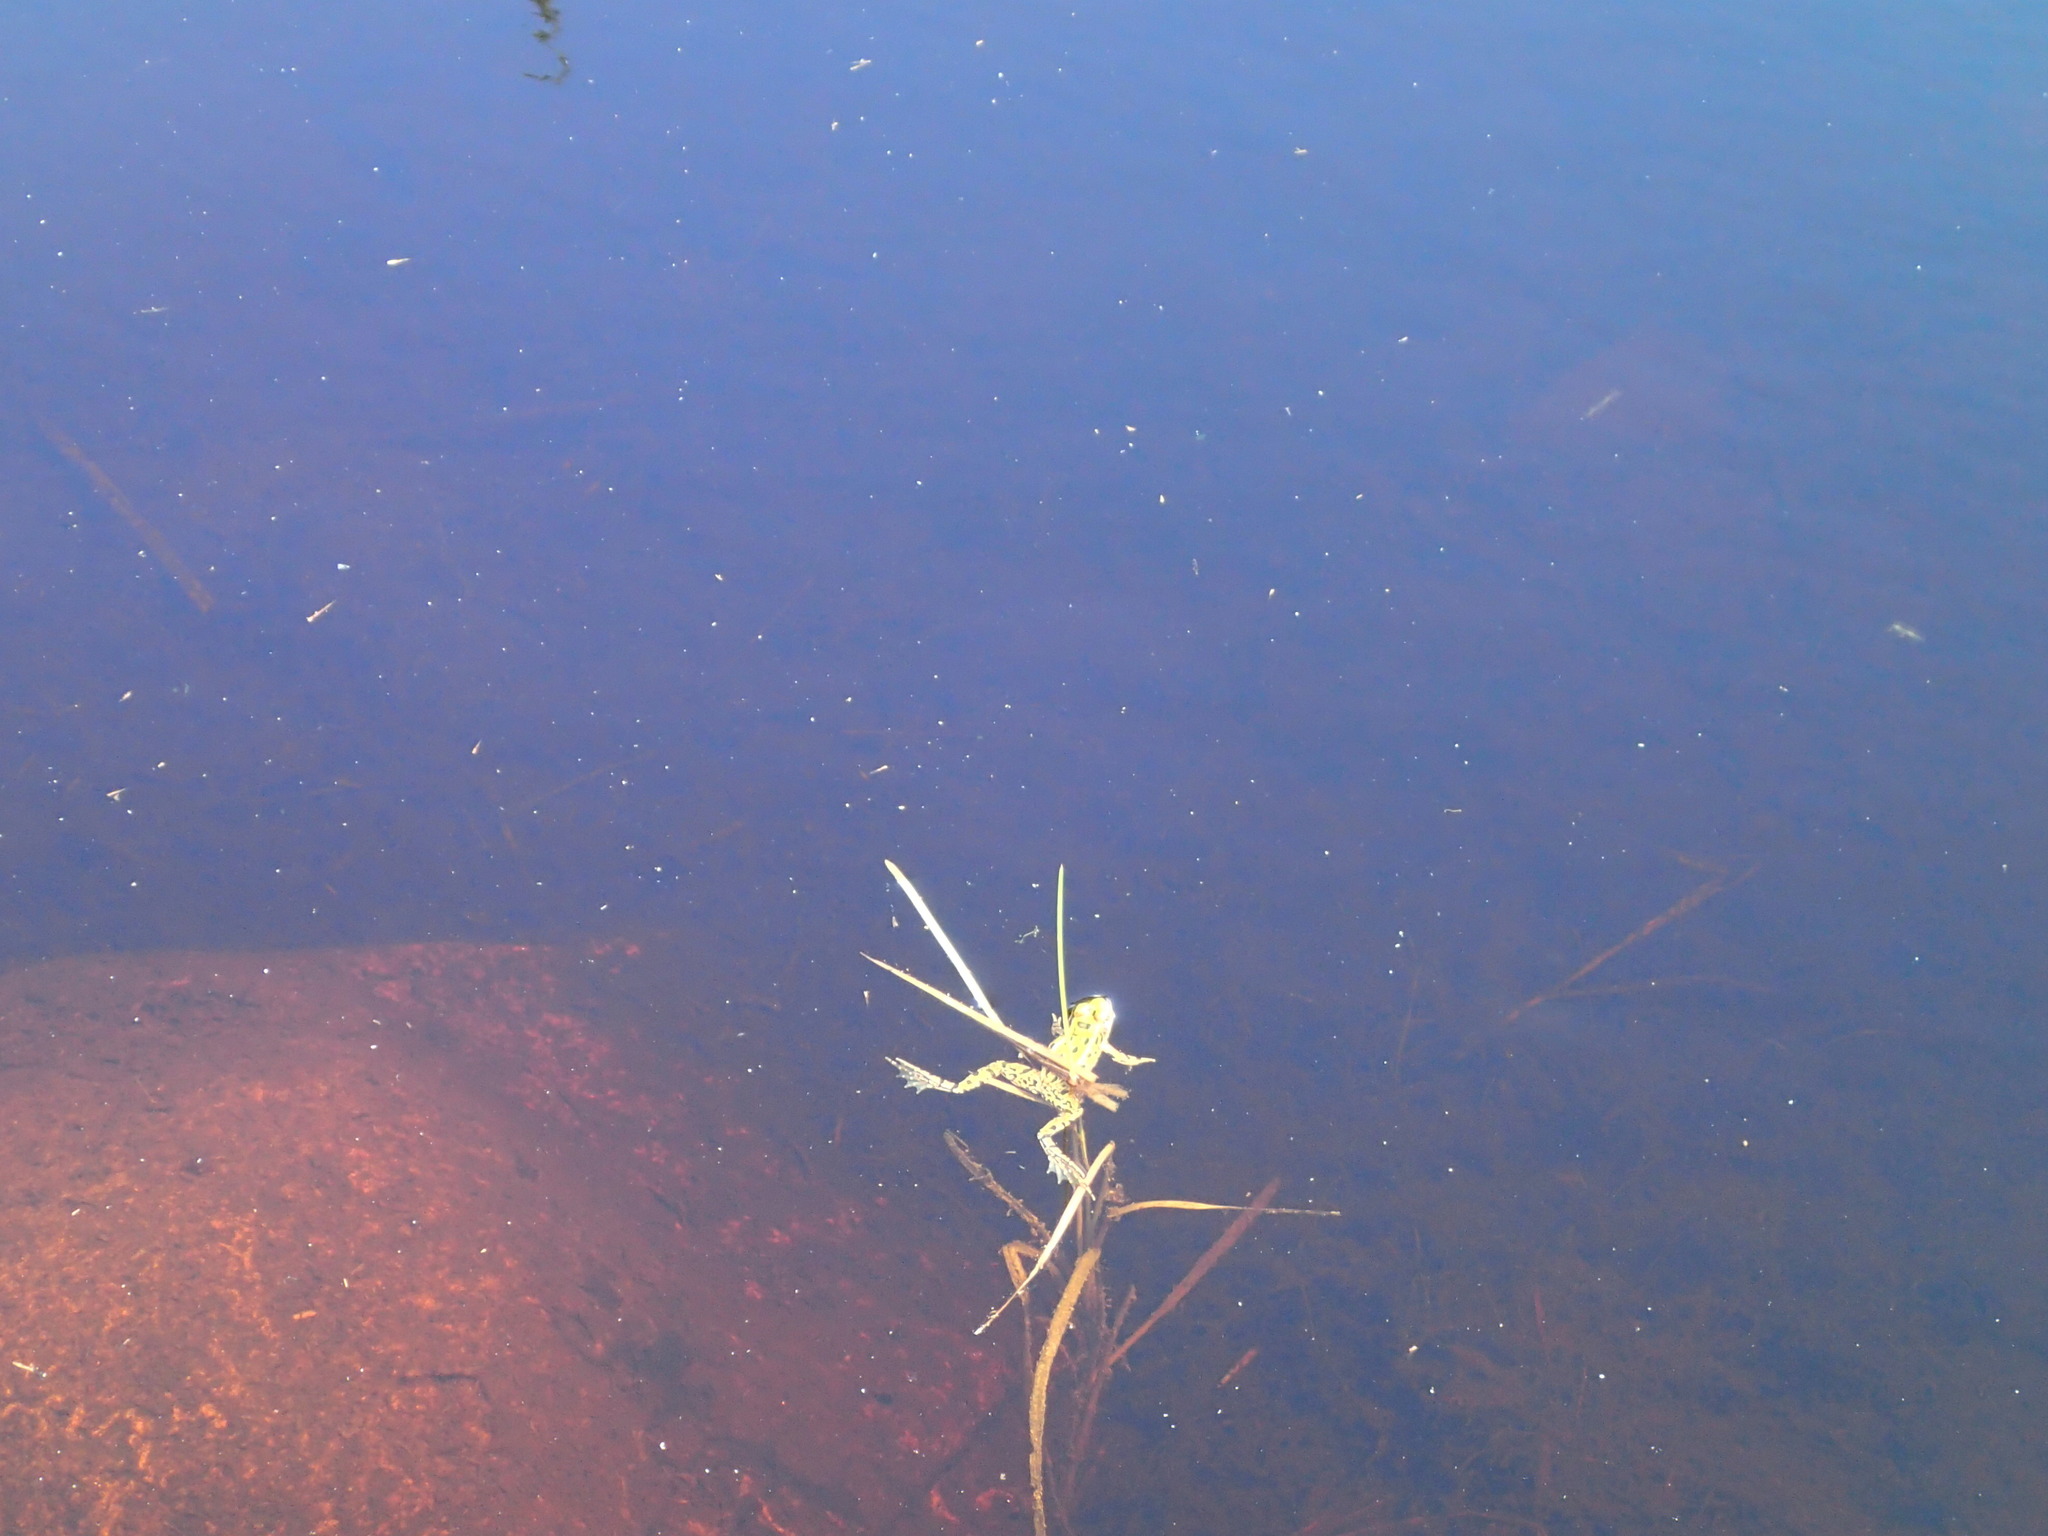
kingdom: Animalia
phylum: Chordata
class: Amphibia
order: Anura
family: Ranidae
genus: Lithobates
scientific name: Lithobates pipiens
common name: Northern leopard frog
